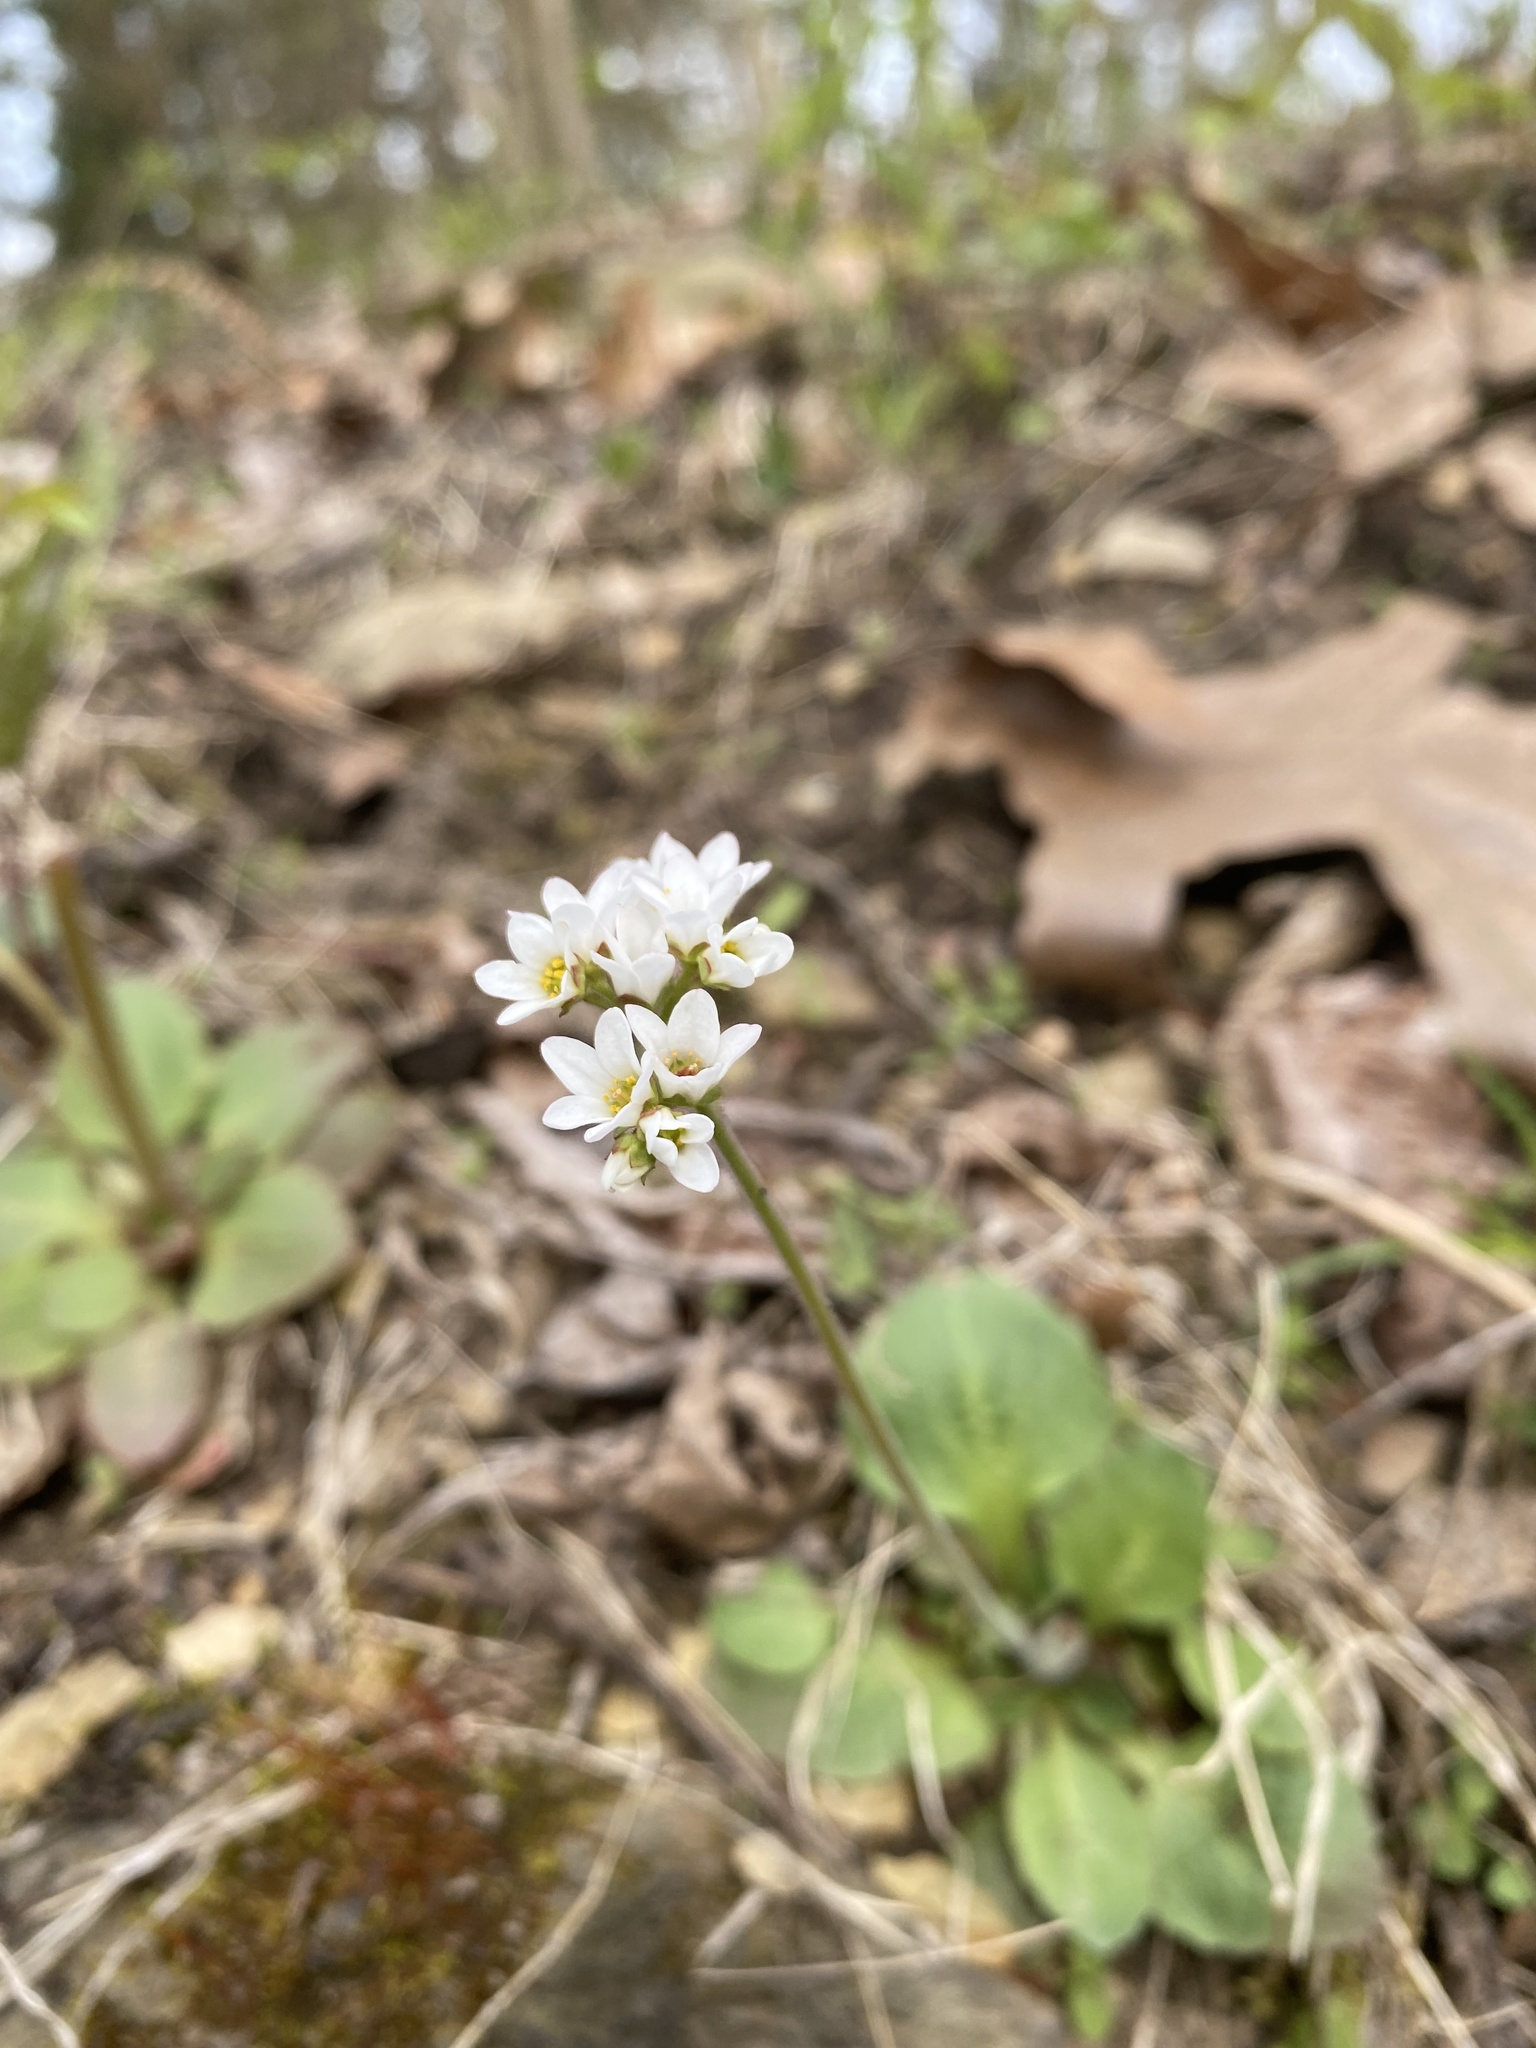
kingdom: Plantae
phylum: Tracheophyta
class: Magnoliopsida
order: Saxifragales
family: Saxifragaceae
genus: Micranthes
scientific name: Micranthes virginiensis
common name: Early saxifrage
